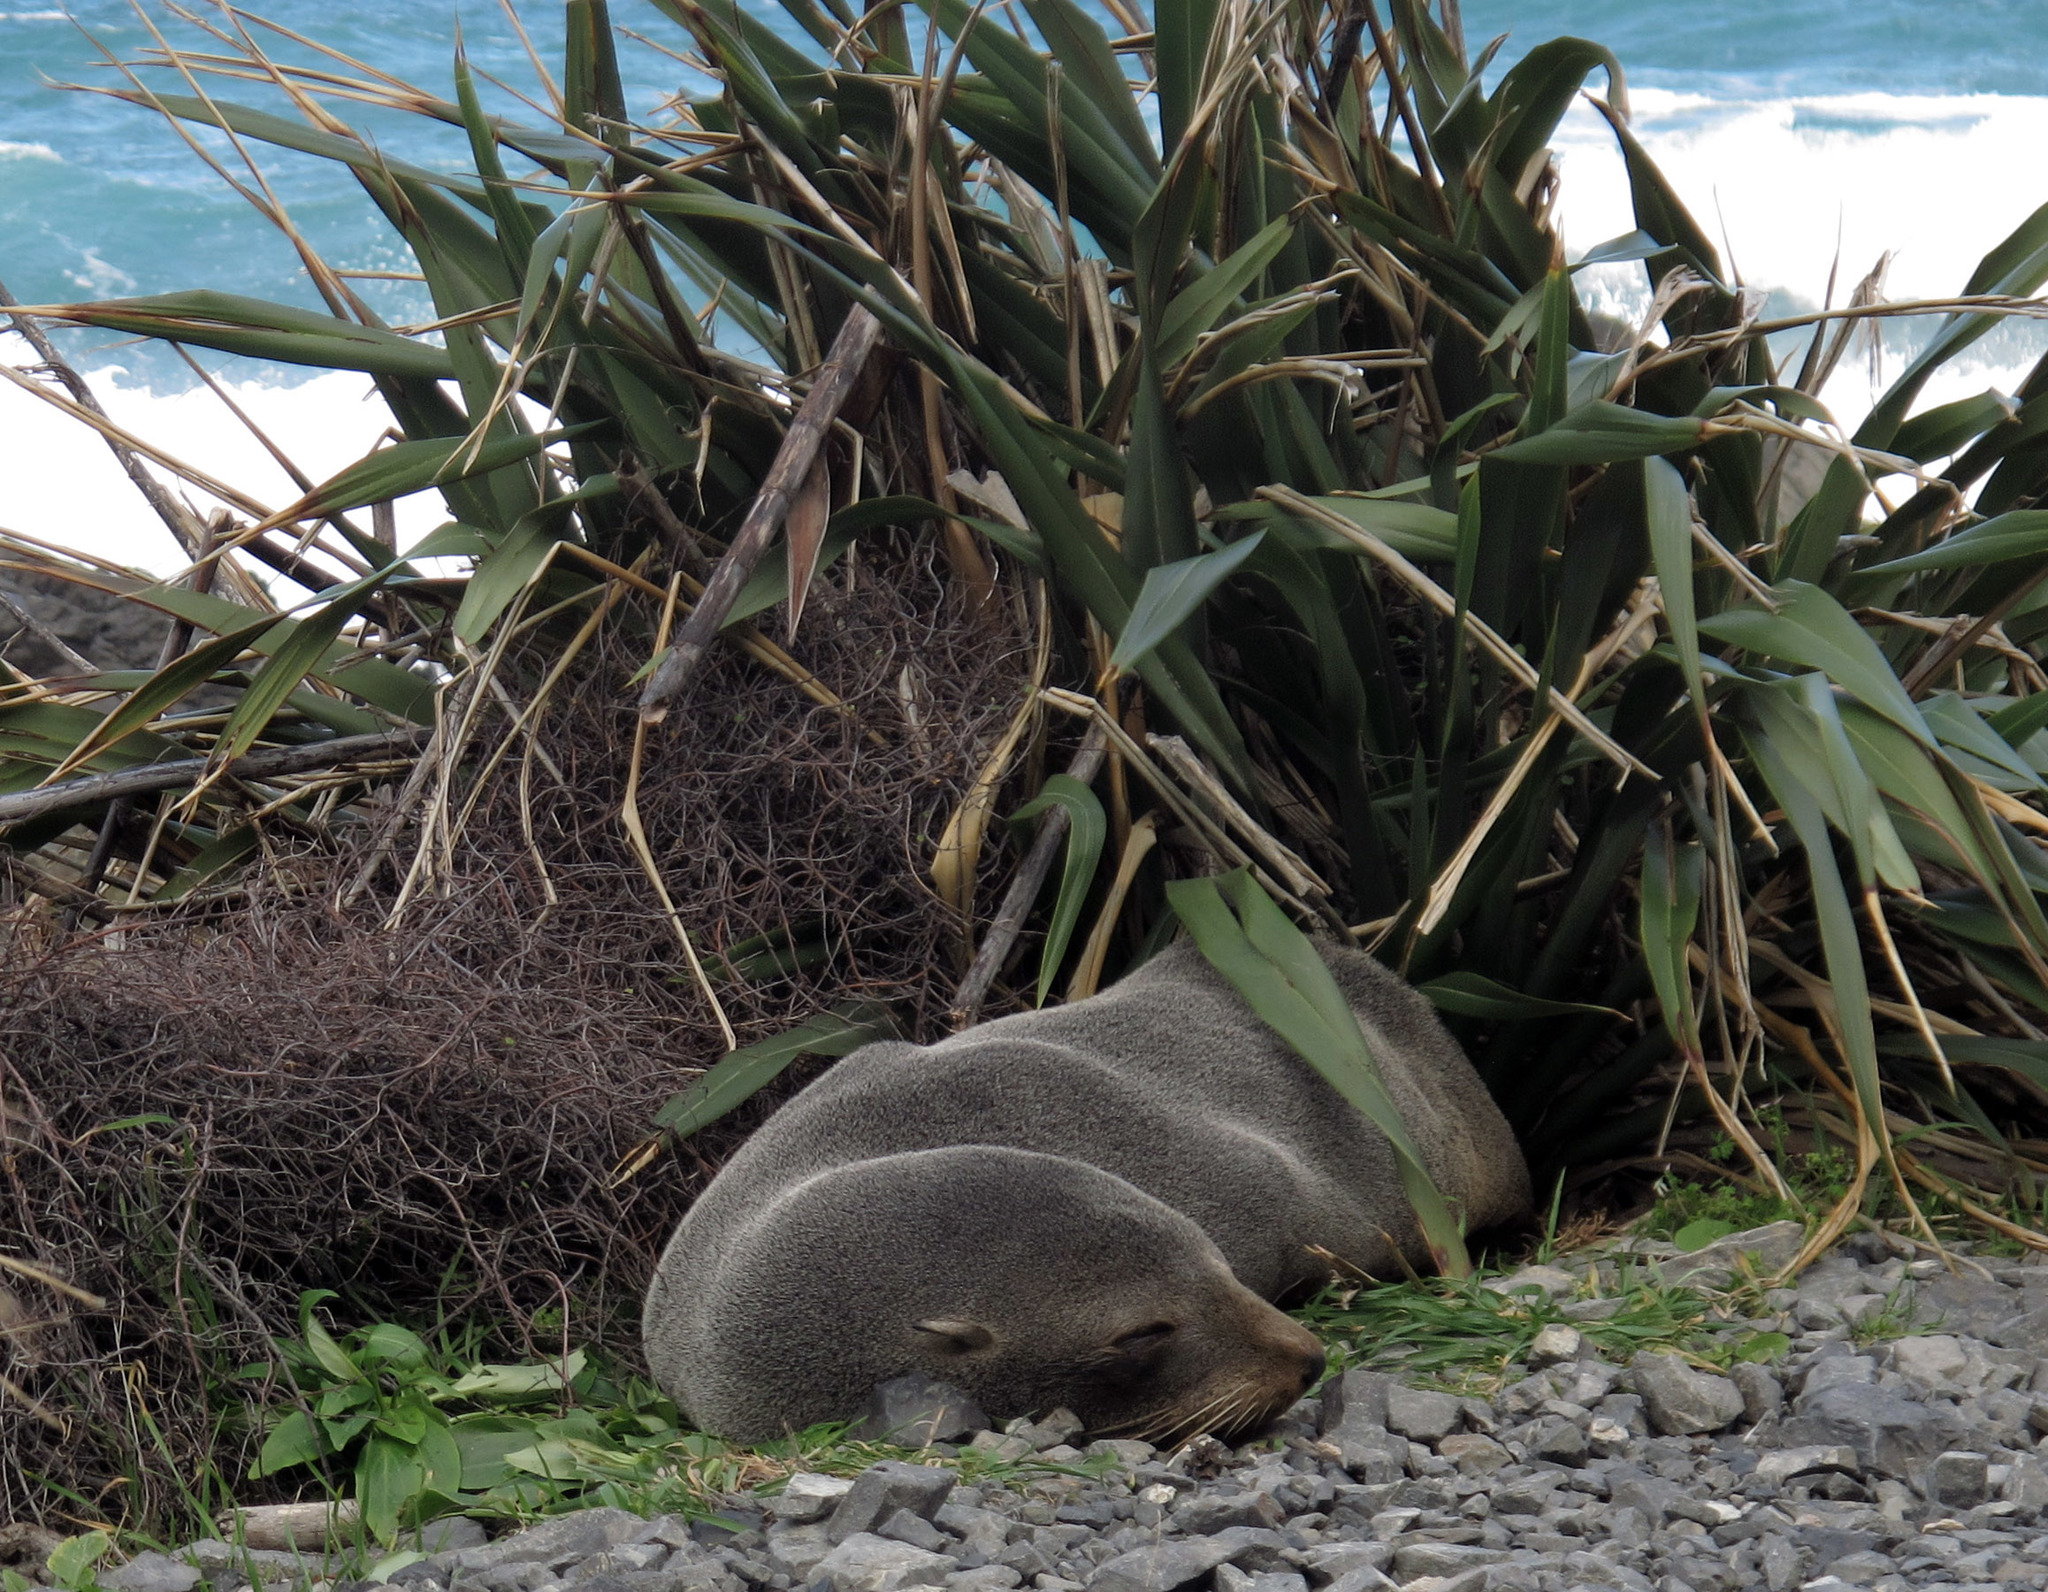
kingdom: Animalia
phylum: Chordata
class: Mammalia
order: Carnivora
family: Otariidae
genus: Arctocephalus
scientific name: Arctocephalus forsteri
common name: New zealand fur seal
